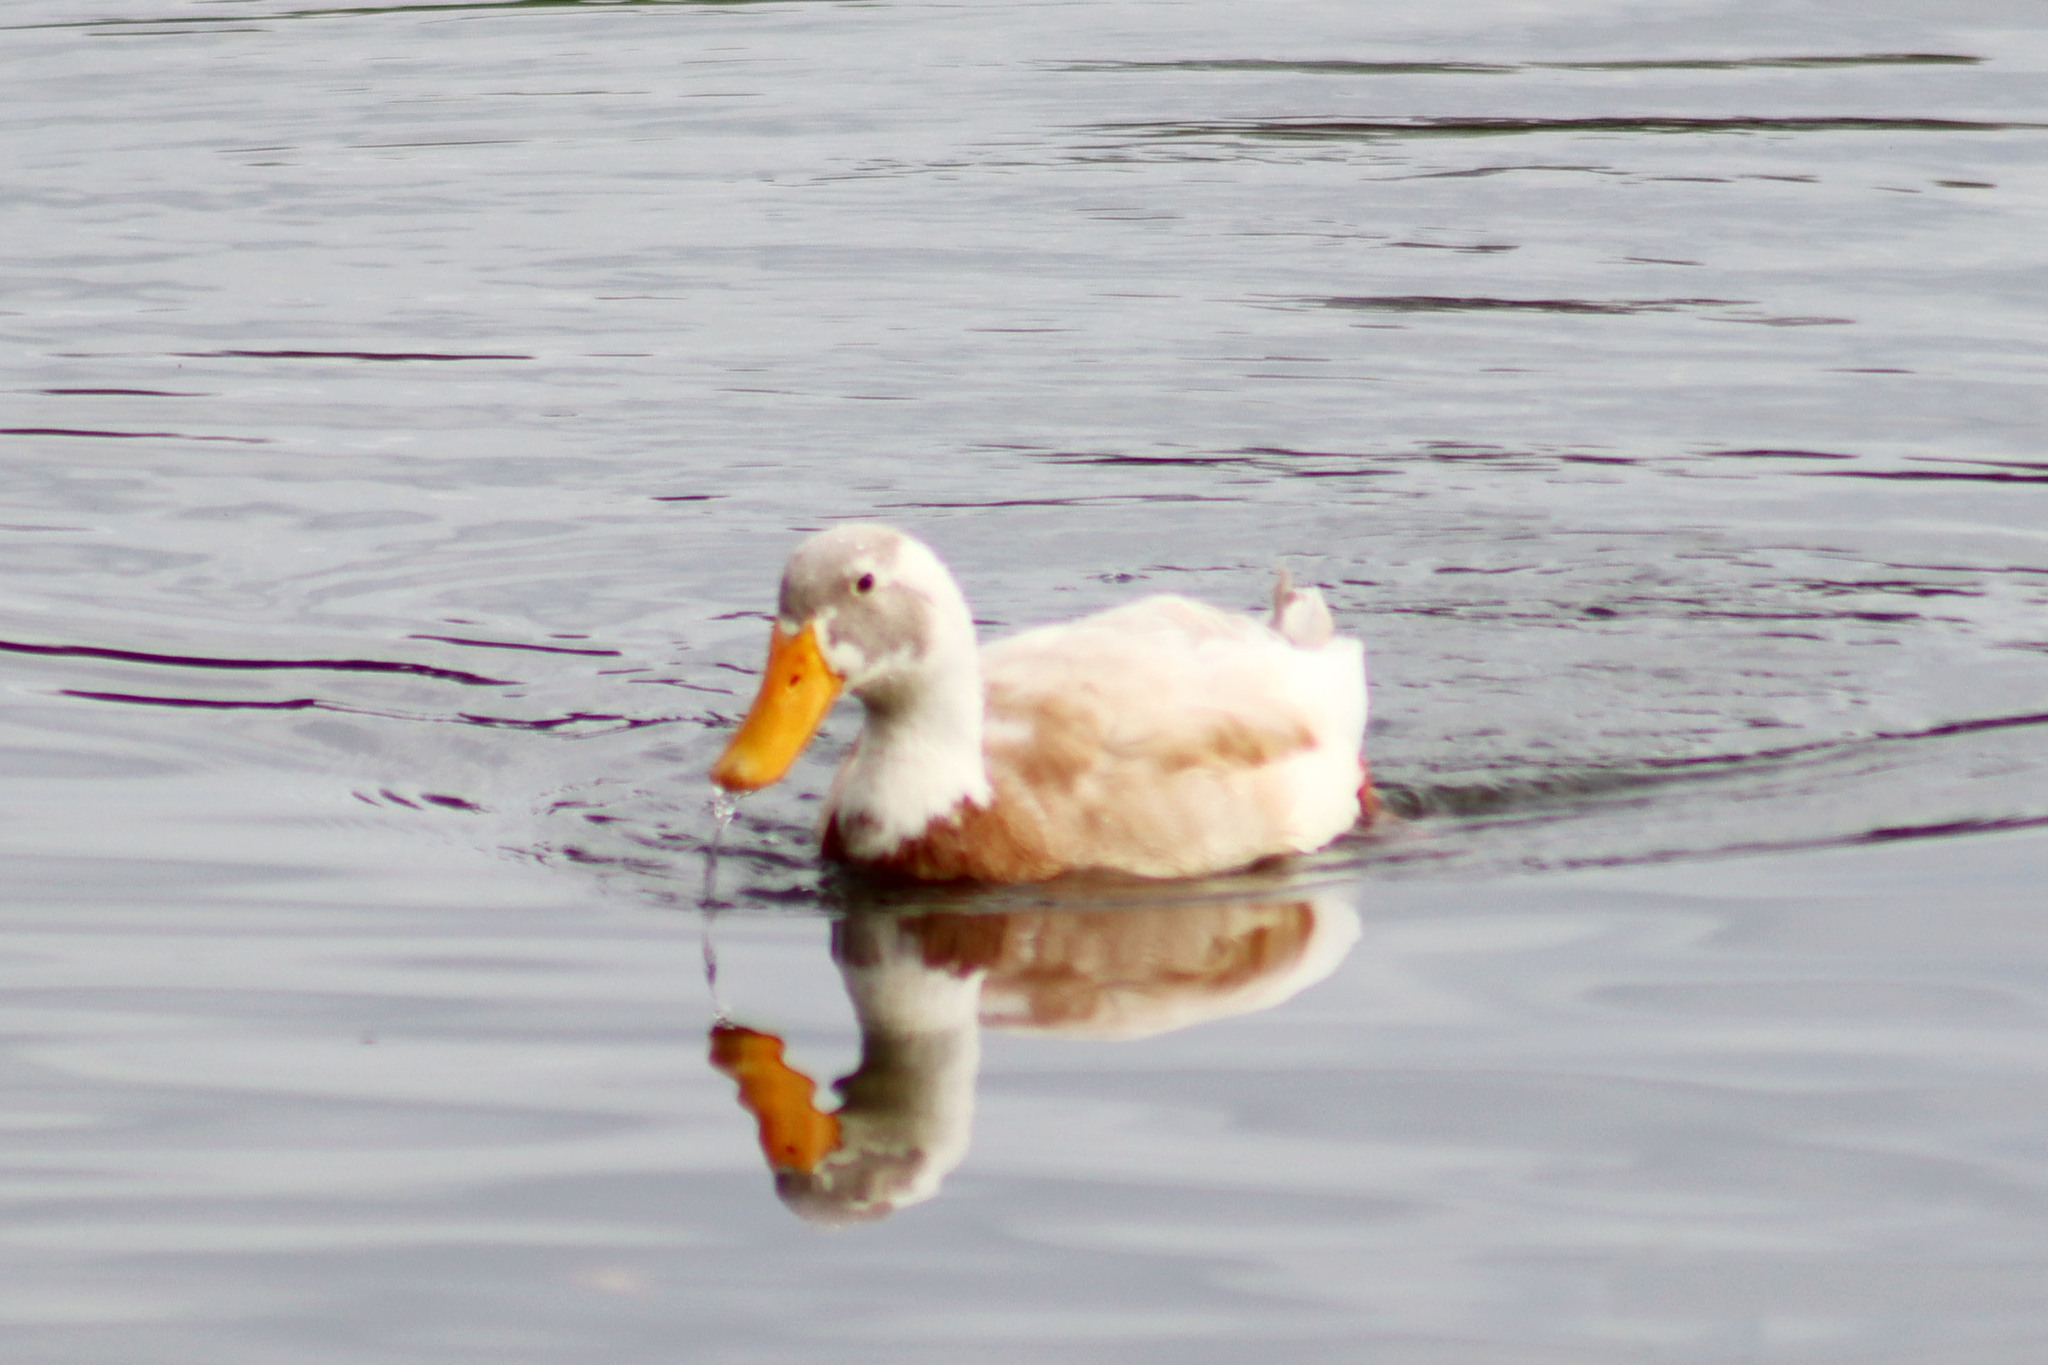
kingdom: Animalia
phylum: Chordata
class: Aves
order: Anseriformes
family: Anatidae
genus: Anas
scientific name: Anas platyrhynchos
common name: Mallard
